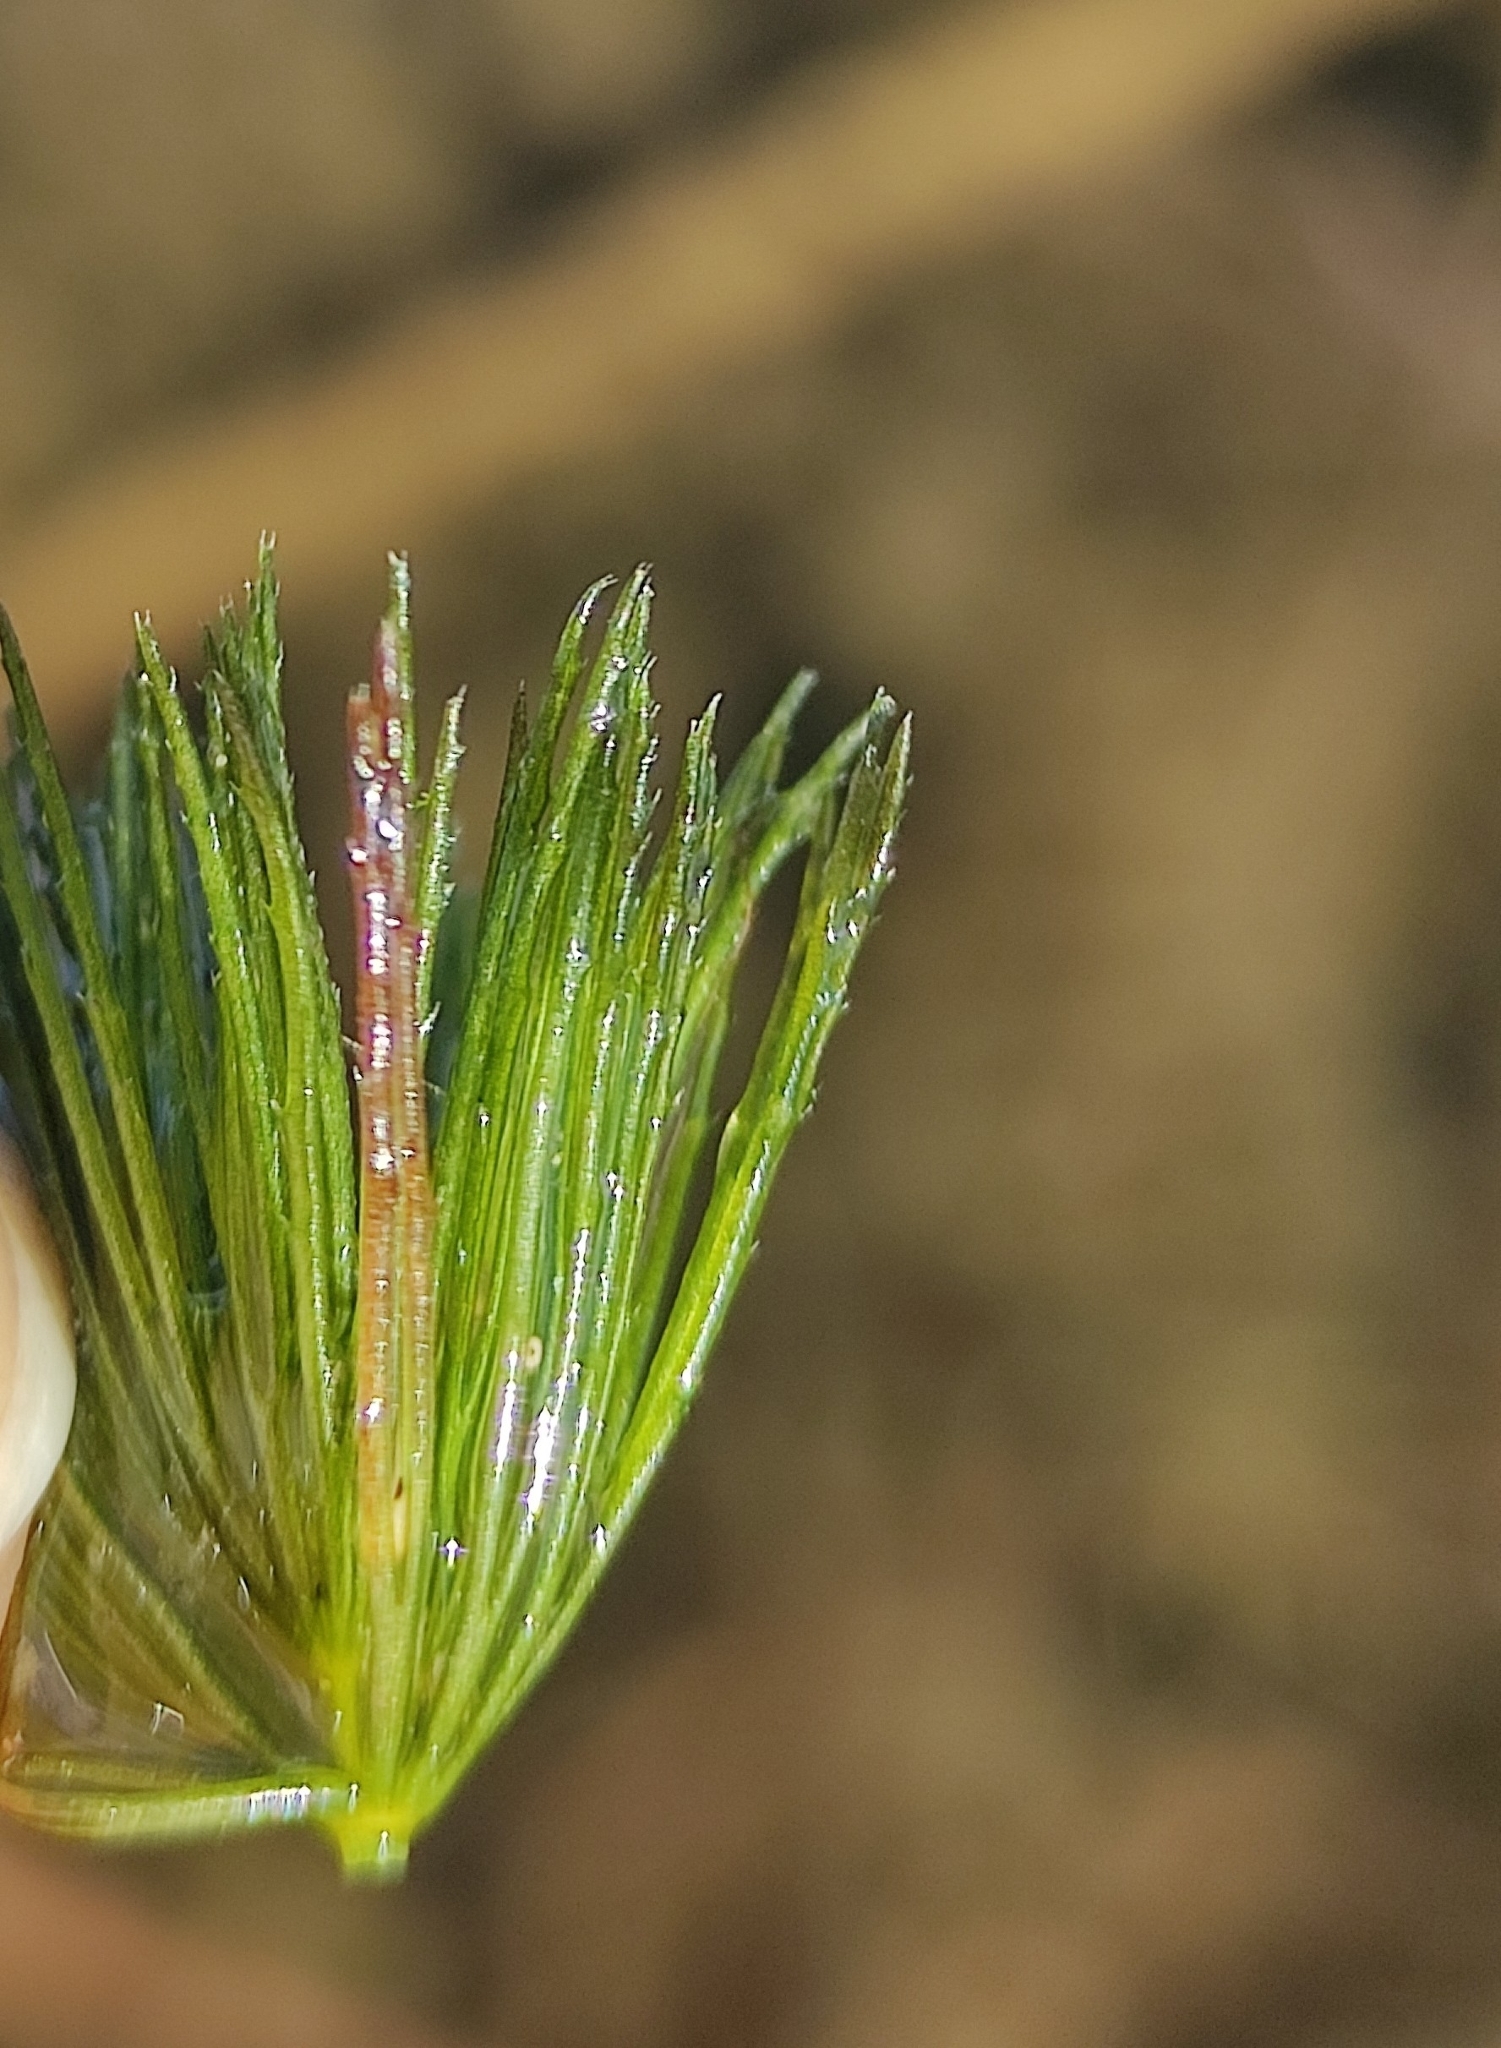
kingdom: Plantae
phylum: Tracheophyta
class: Magnoliopsida
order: Ceratophyllales
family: Ceratophyllaceae
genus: Ceratophyllum
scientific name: Ceratophyllum demersum
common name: Rigid hornwort
